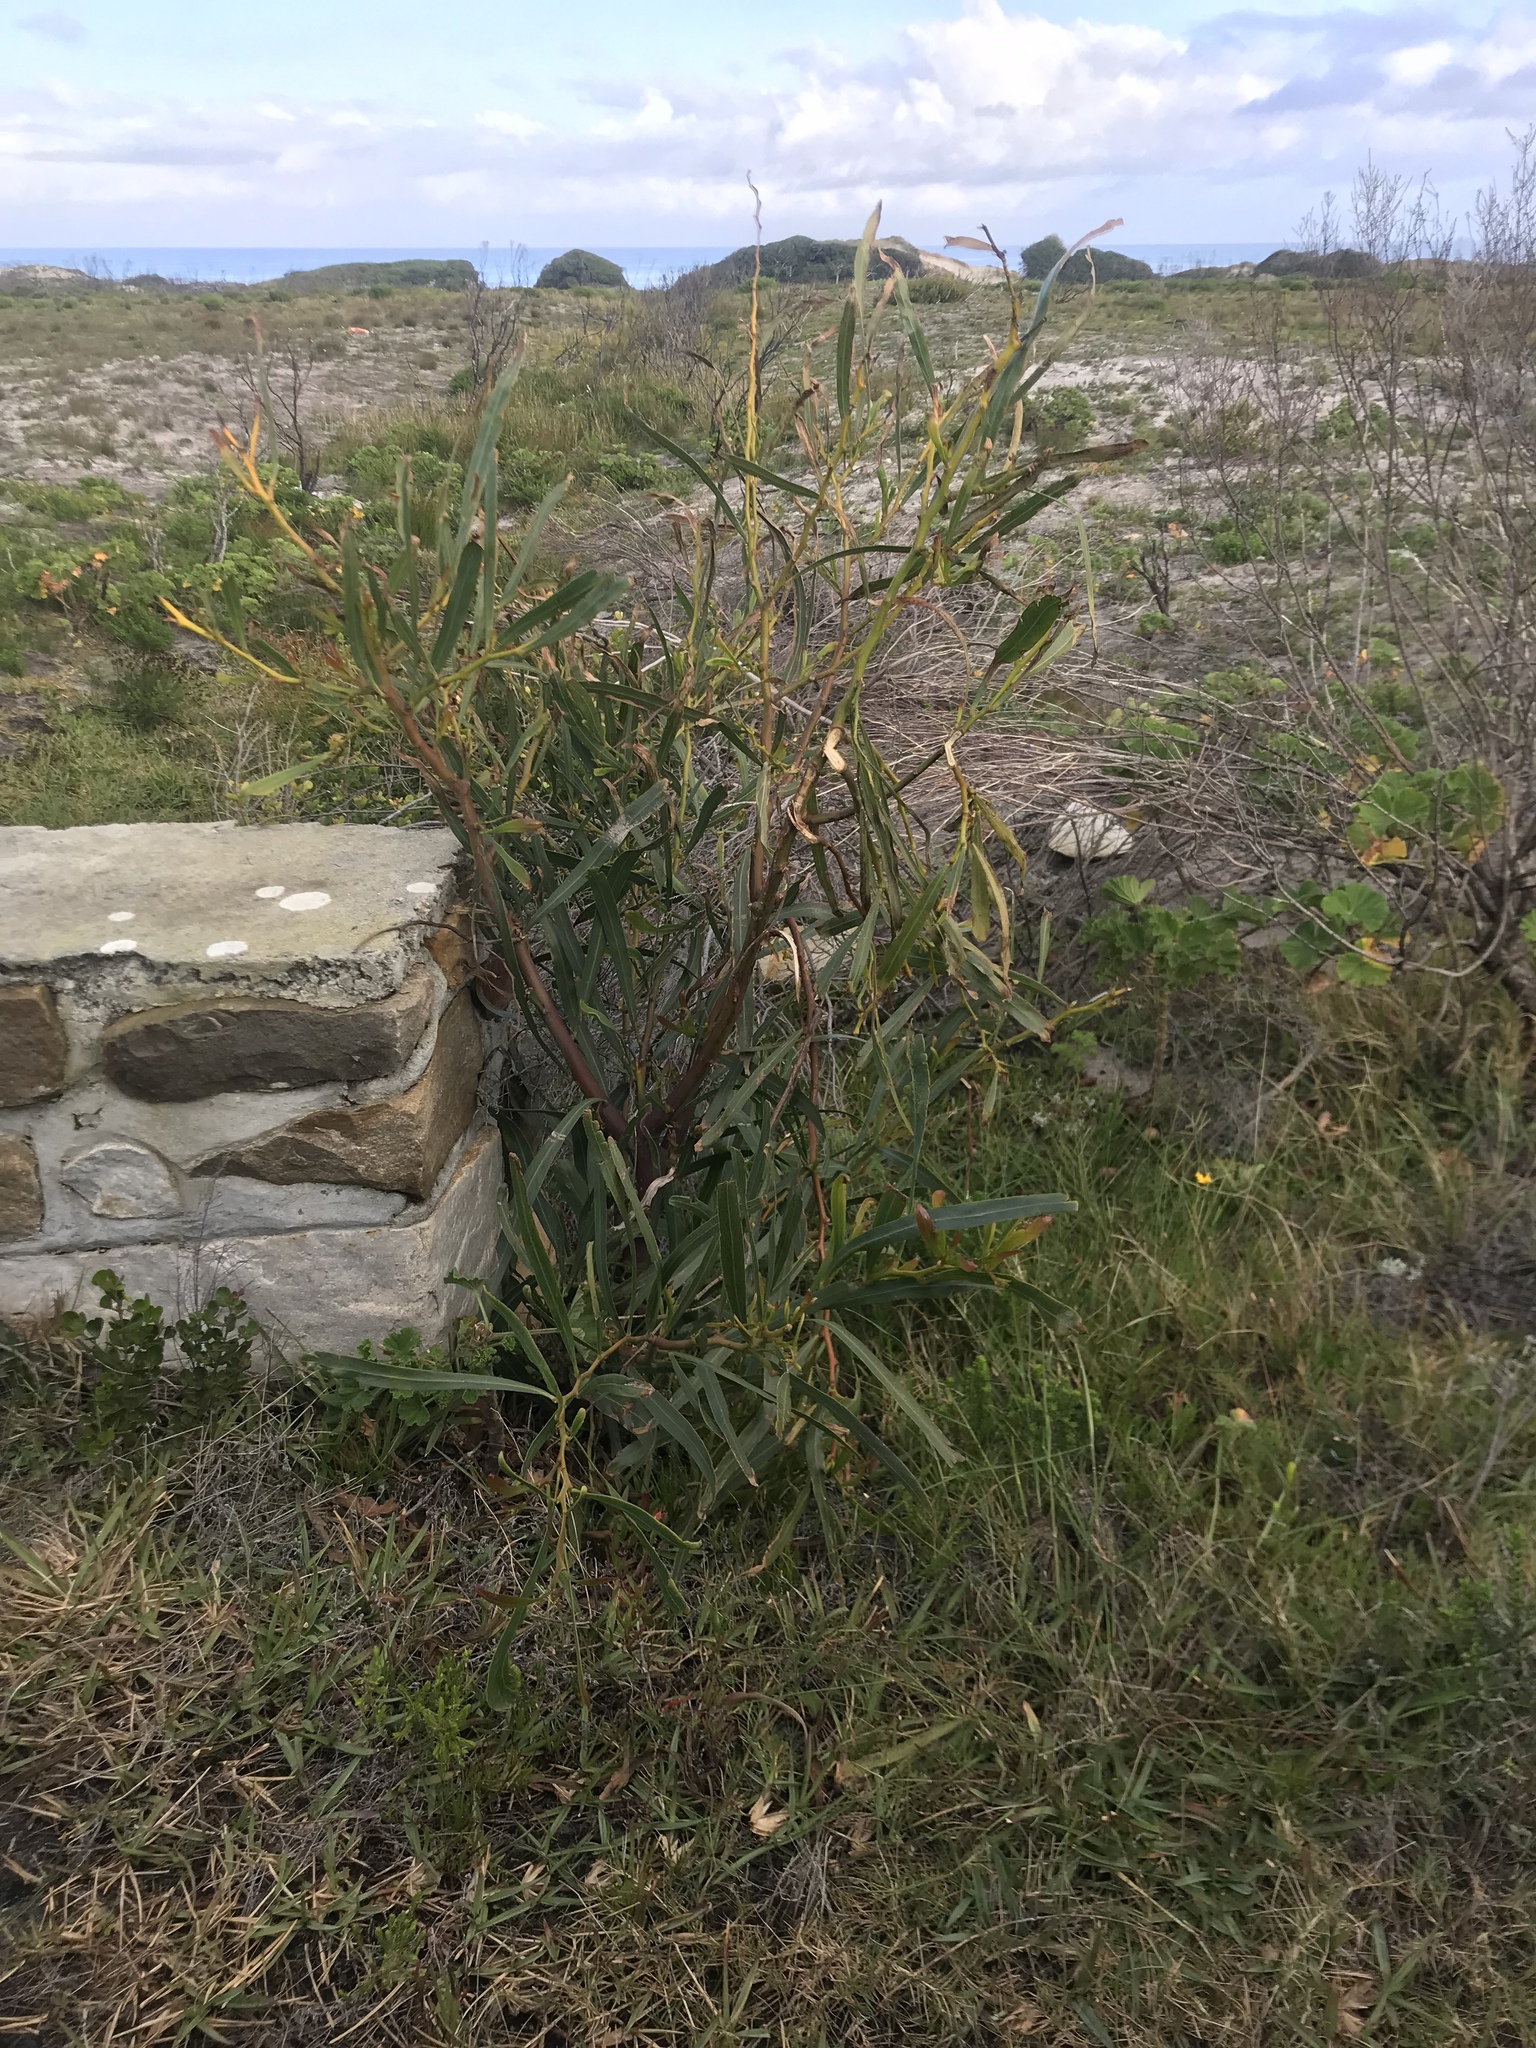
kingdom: Plantae
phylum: Tracheophyta
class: Magnoliopsida
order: Fabales
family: Fabaceae
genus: Acacia
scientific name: Acacia saligna
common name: Orange wattle
